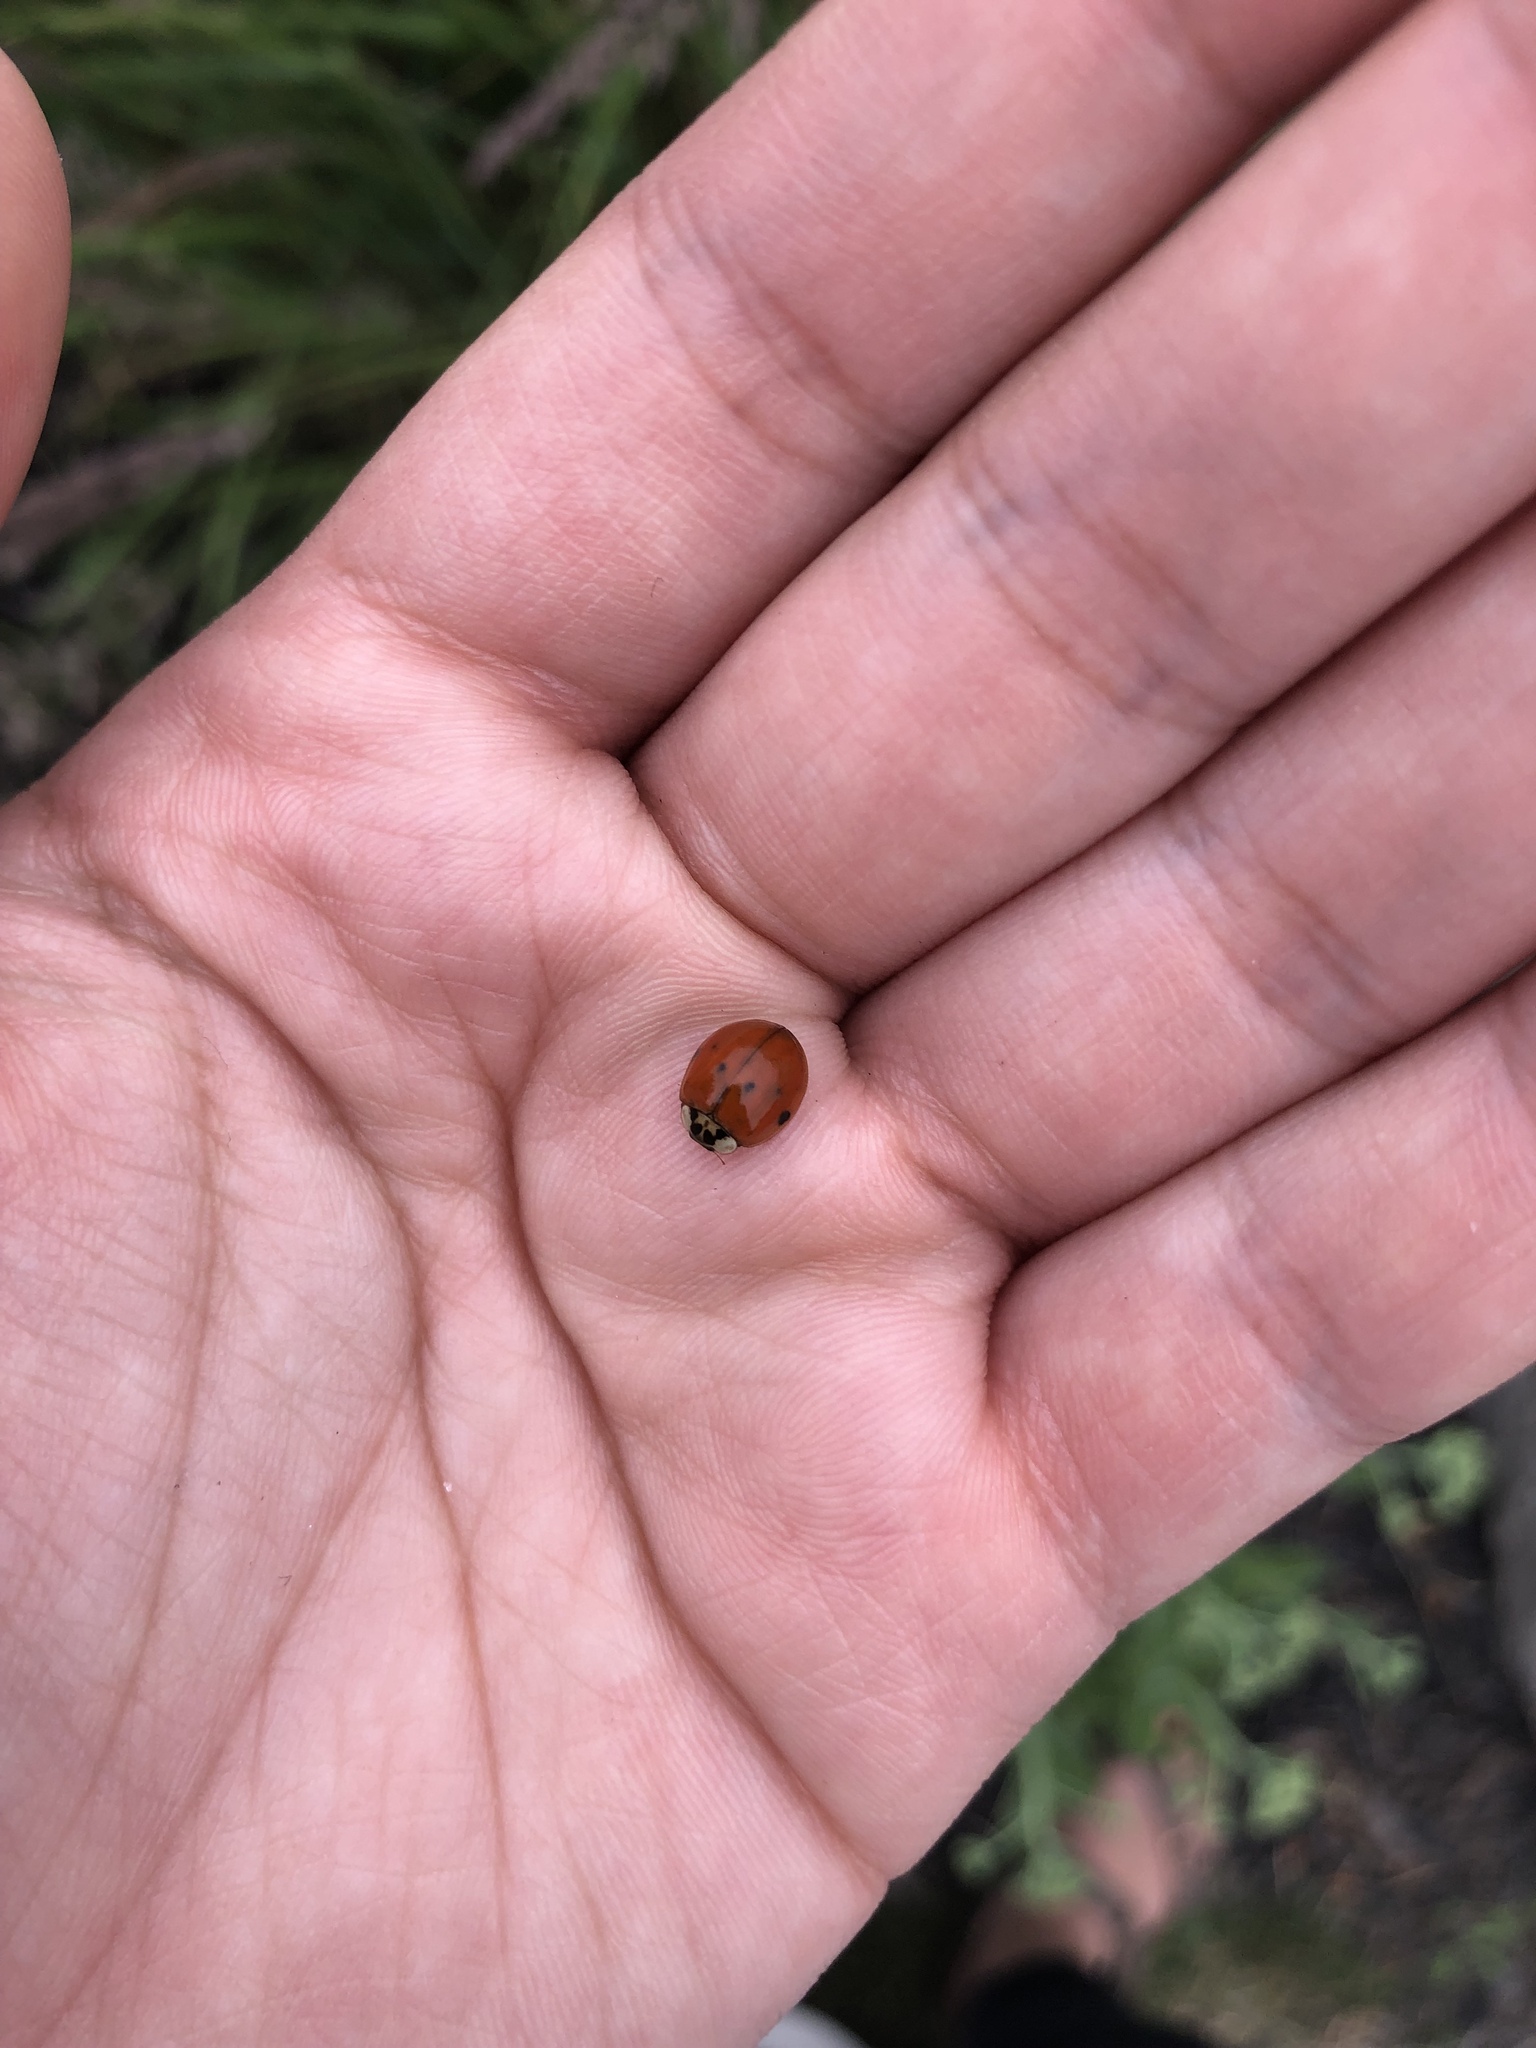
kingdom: Animalia
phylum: Arthropoda
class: Insecta
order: Coleoptera
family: Coccinellidae
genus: Harmonia
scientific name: Harmonia axyridis
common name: Harlequin ladybird
